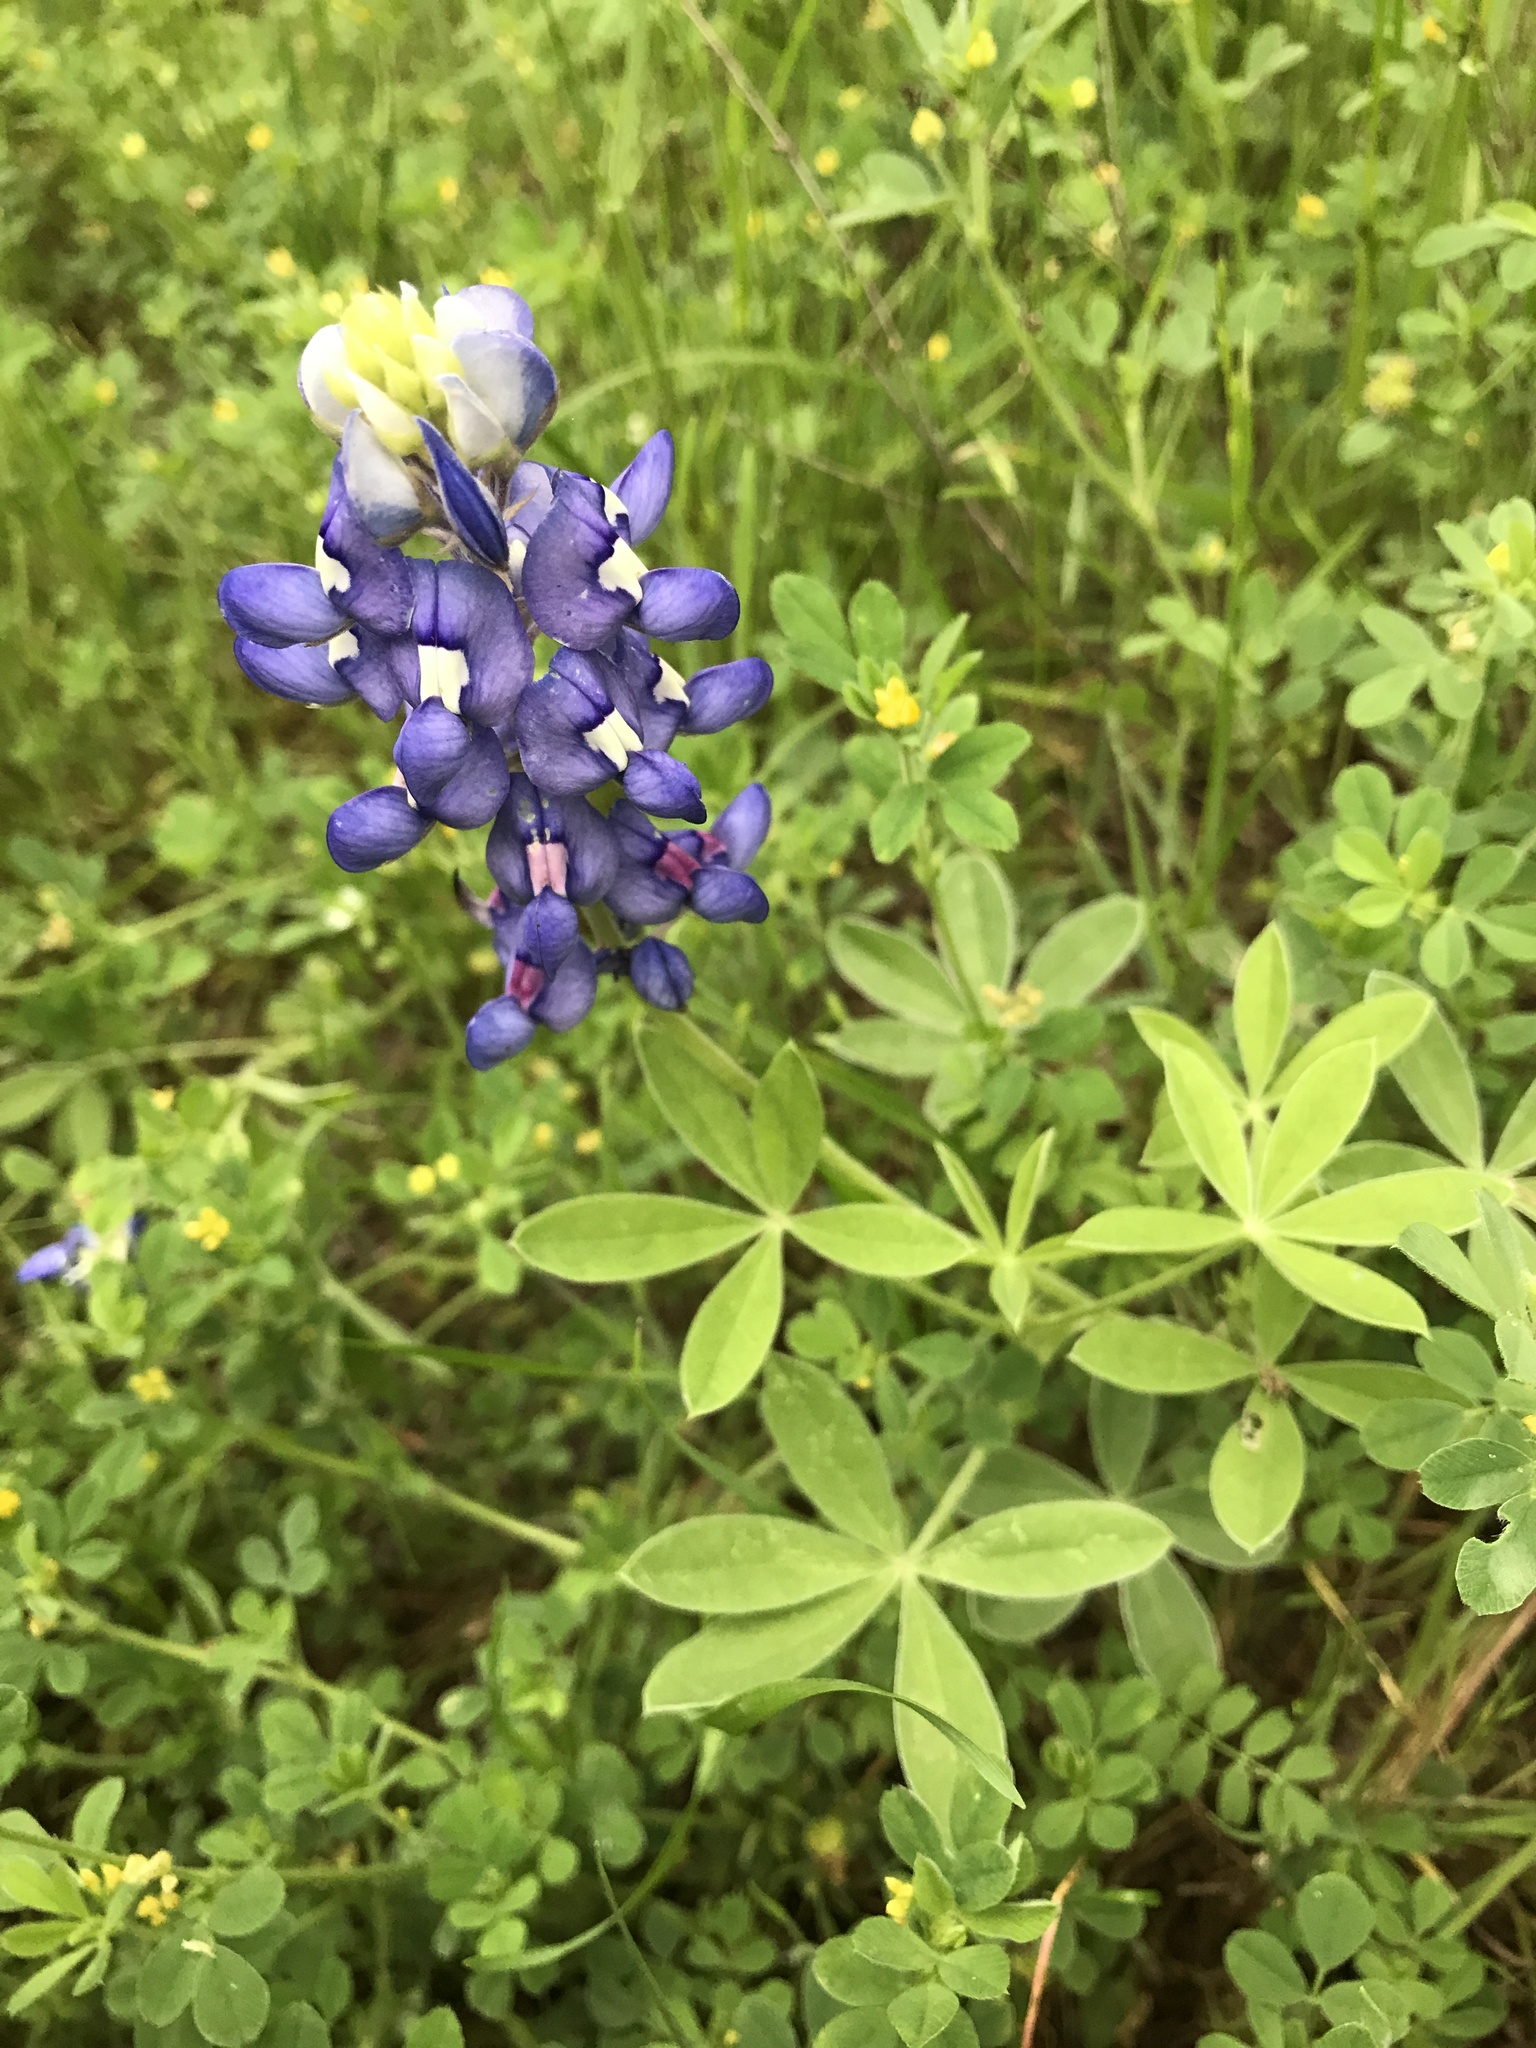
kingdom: Plantae
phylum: Tracheophyta
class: Magnoliopsida
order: Fabales
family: Fabaceae
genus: Lupinus
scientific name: Lupinus texensis
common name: Texas bluebonnet
